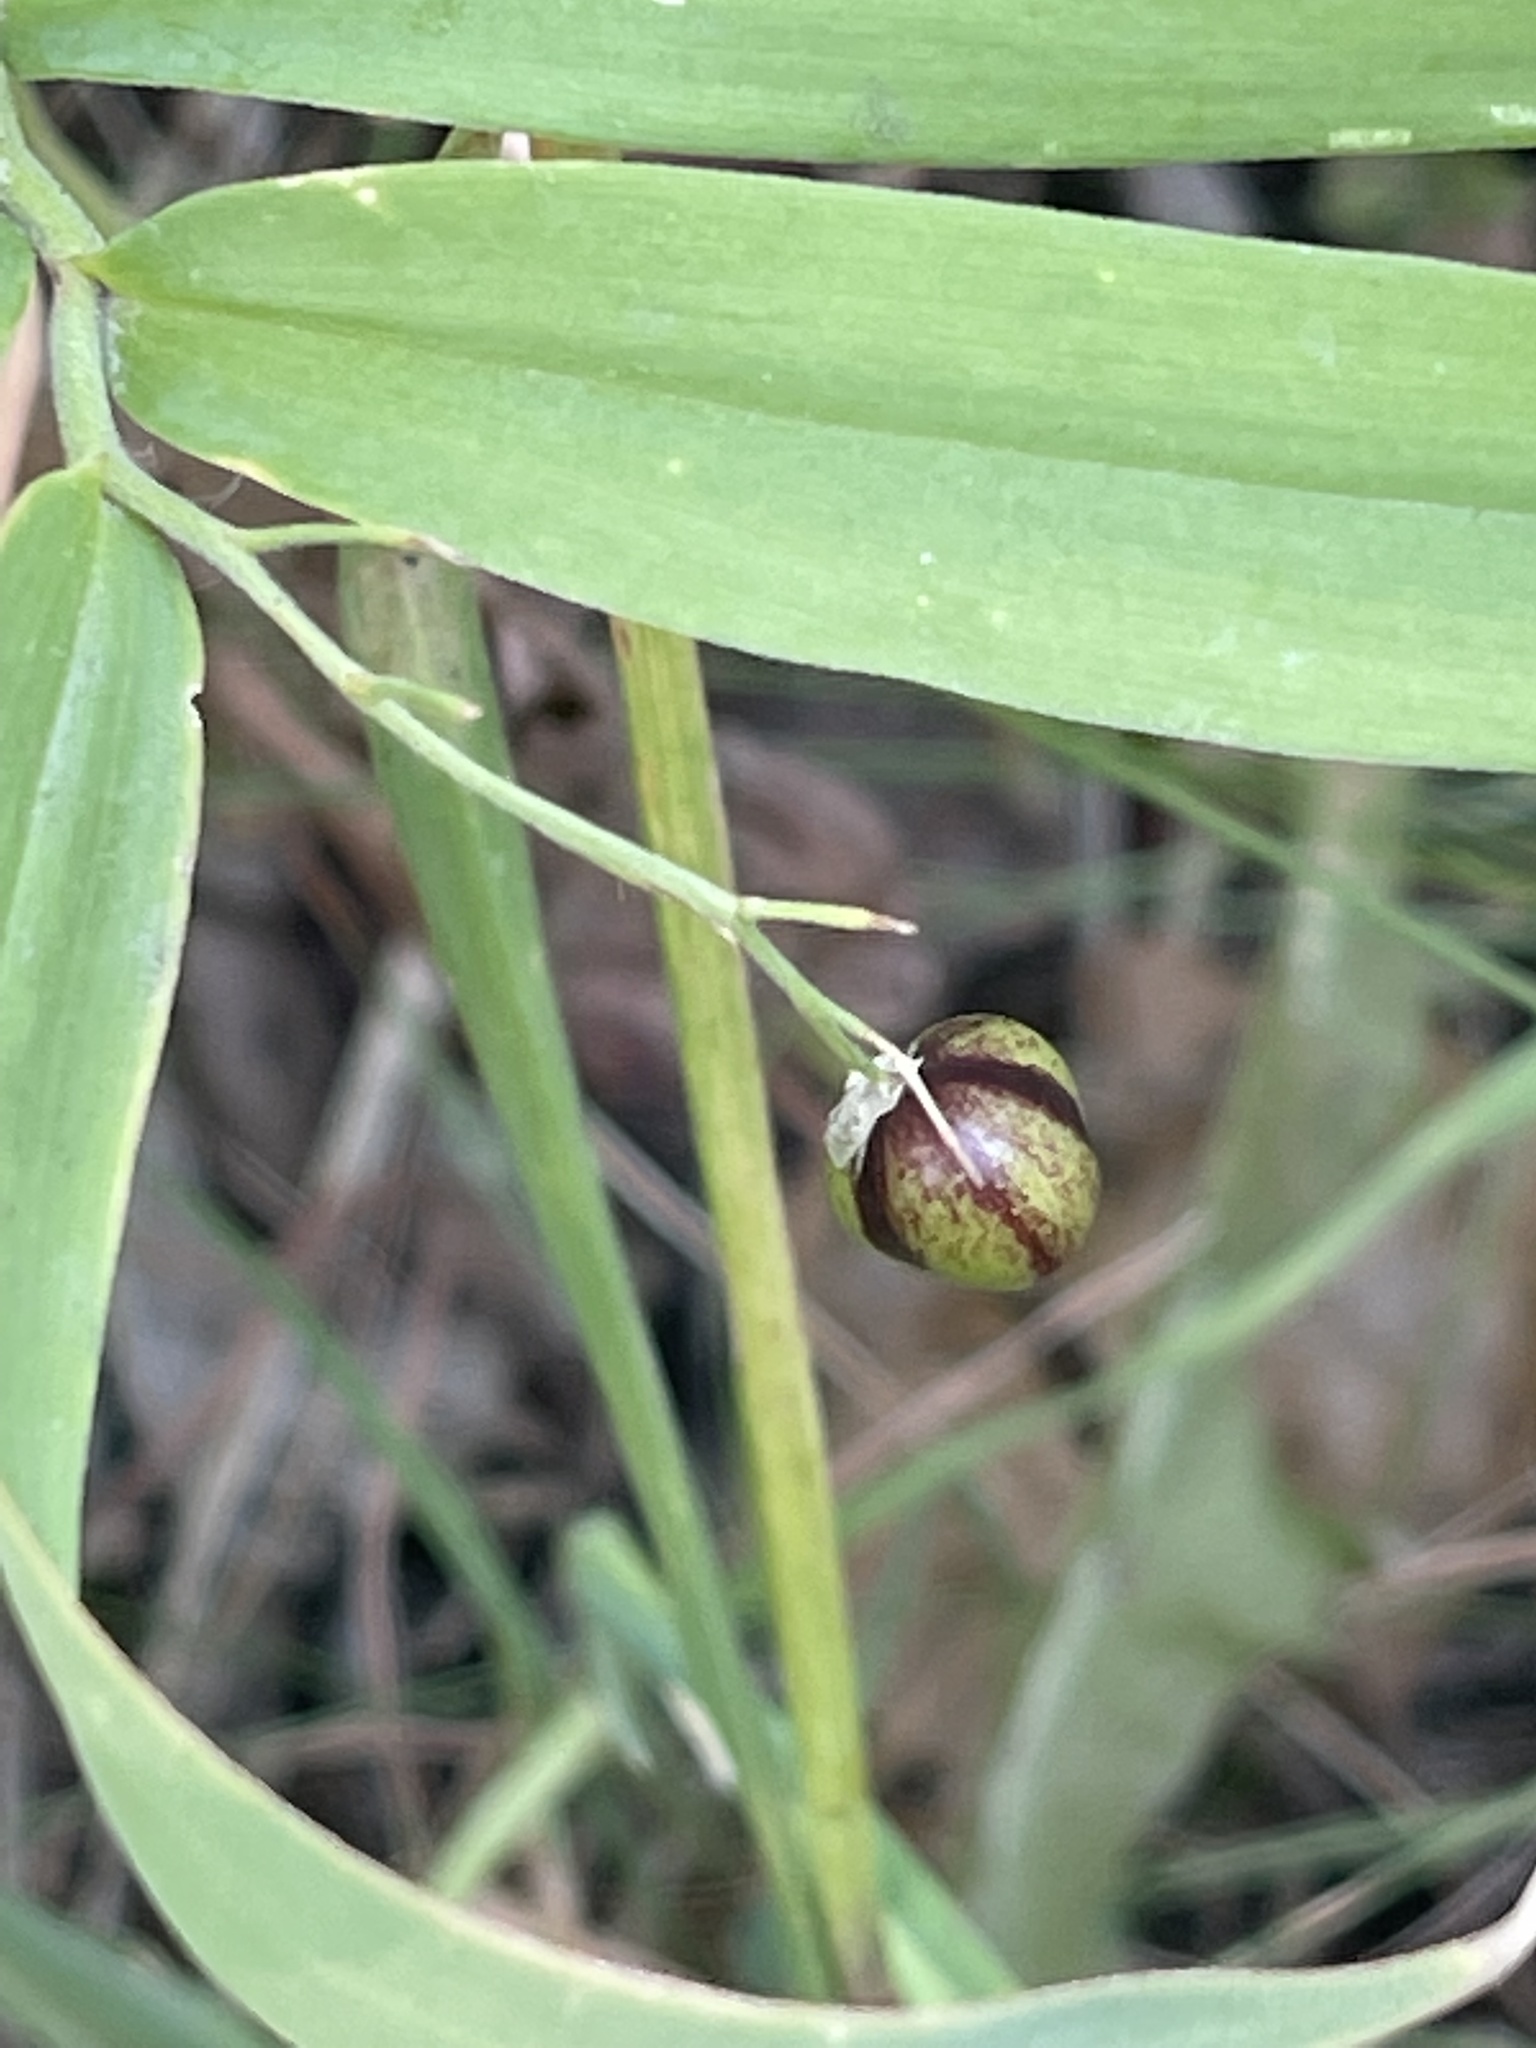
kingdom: Plantae
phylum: Tracheophyta
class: Liliopsida
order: Asparagales
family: Asparagaceae
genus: Maianthemum
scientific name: Maianthemum stellatum
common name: Little false solomon's seal
